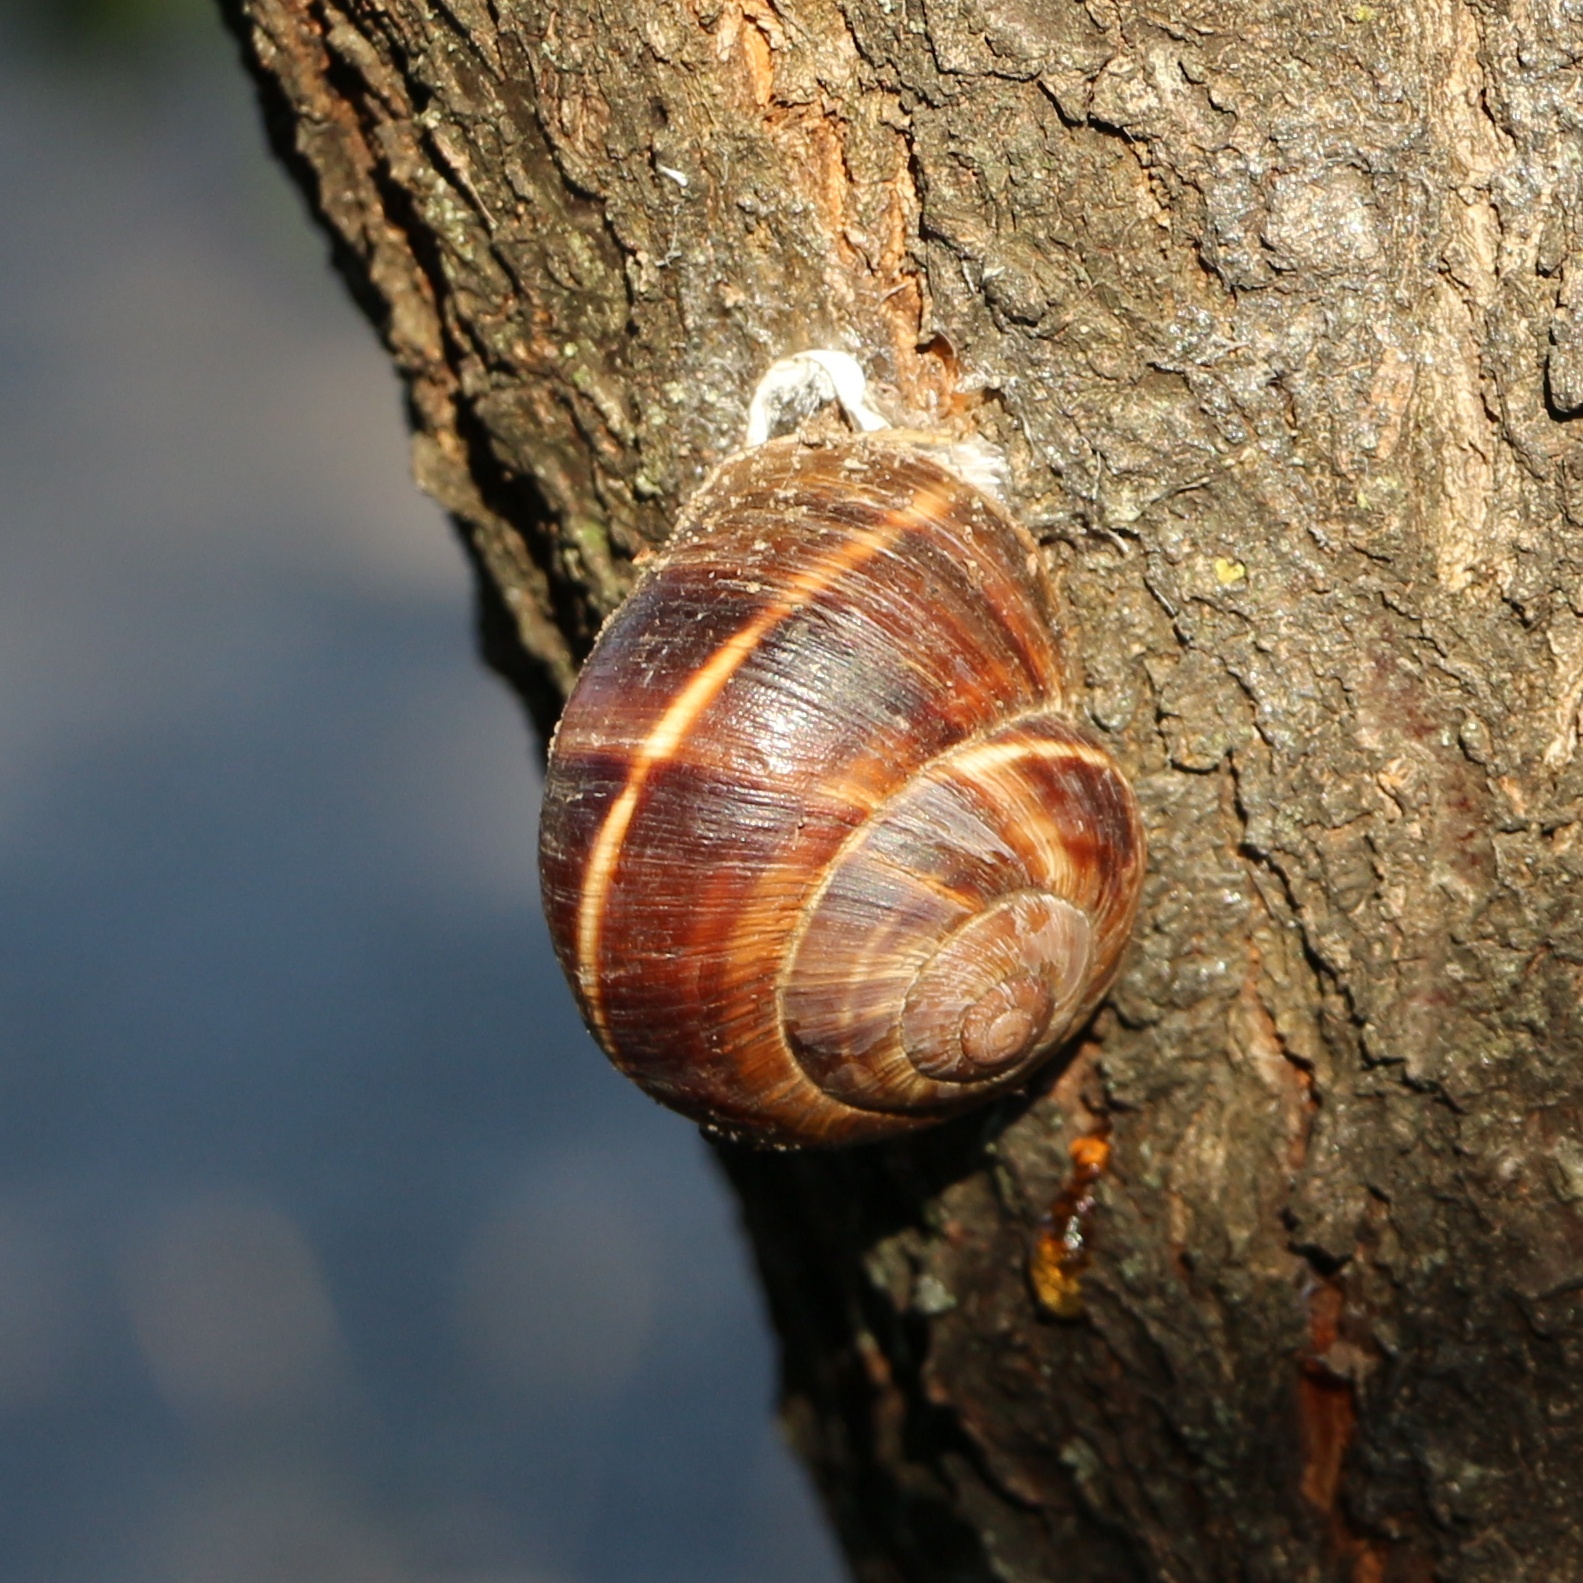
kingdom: Animalia
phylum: Mollusca
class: Gastropoda
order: Stylommatophora
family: Helicidae
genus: Helix
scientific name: Helix lucorum
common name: Turkish snail
